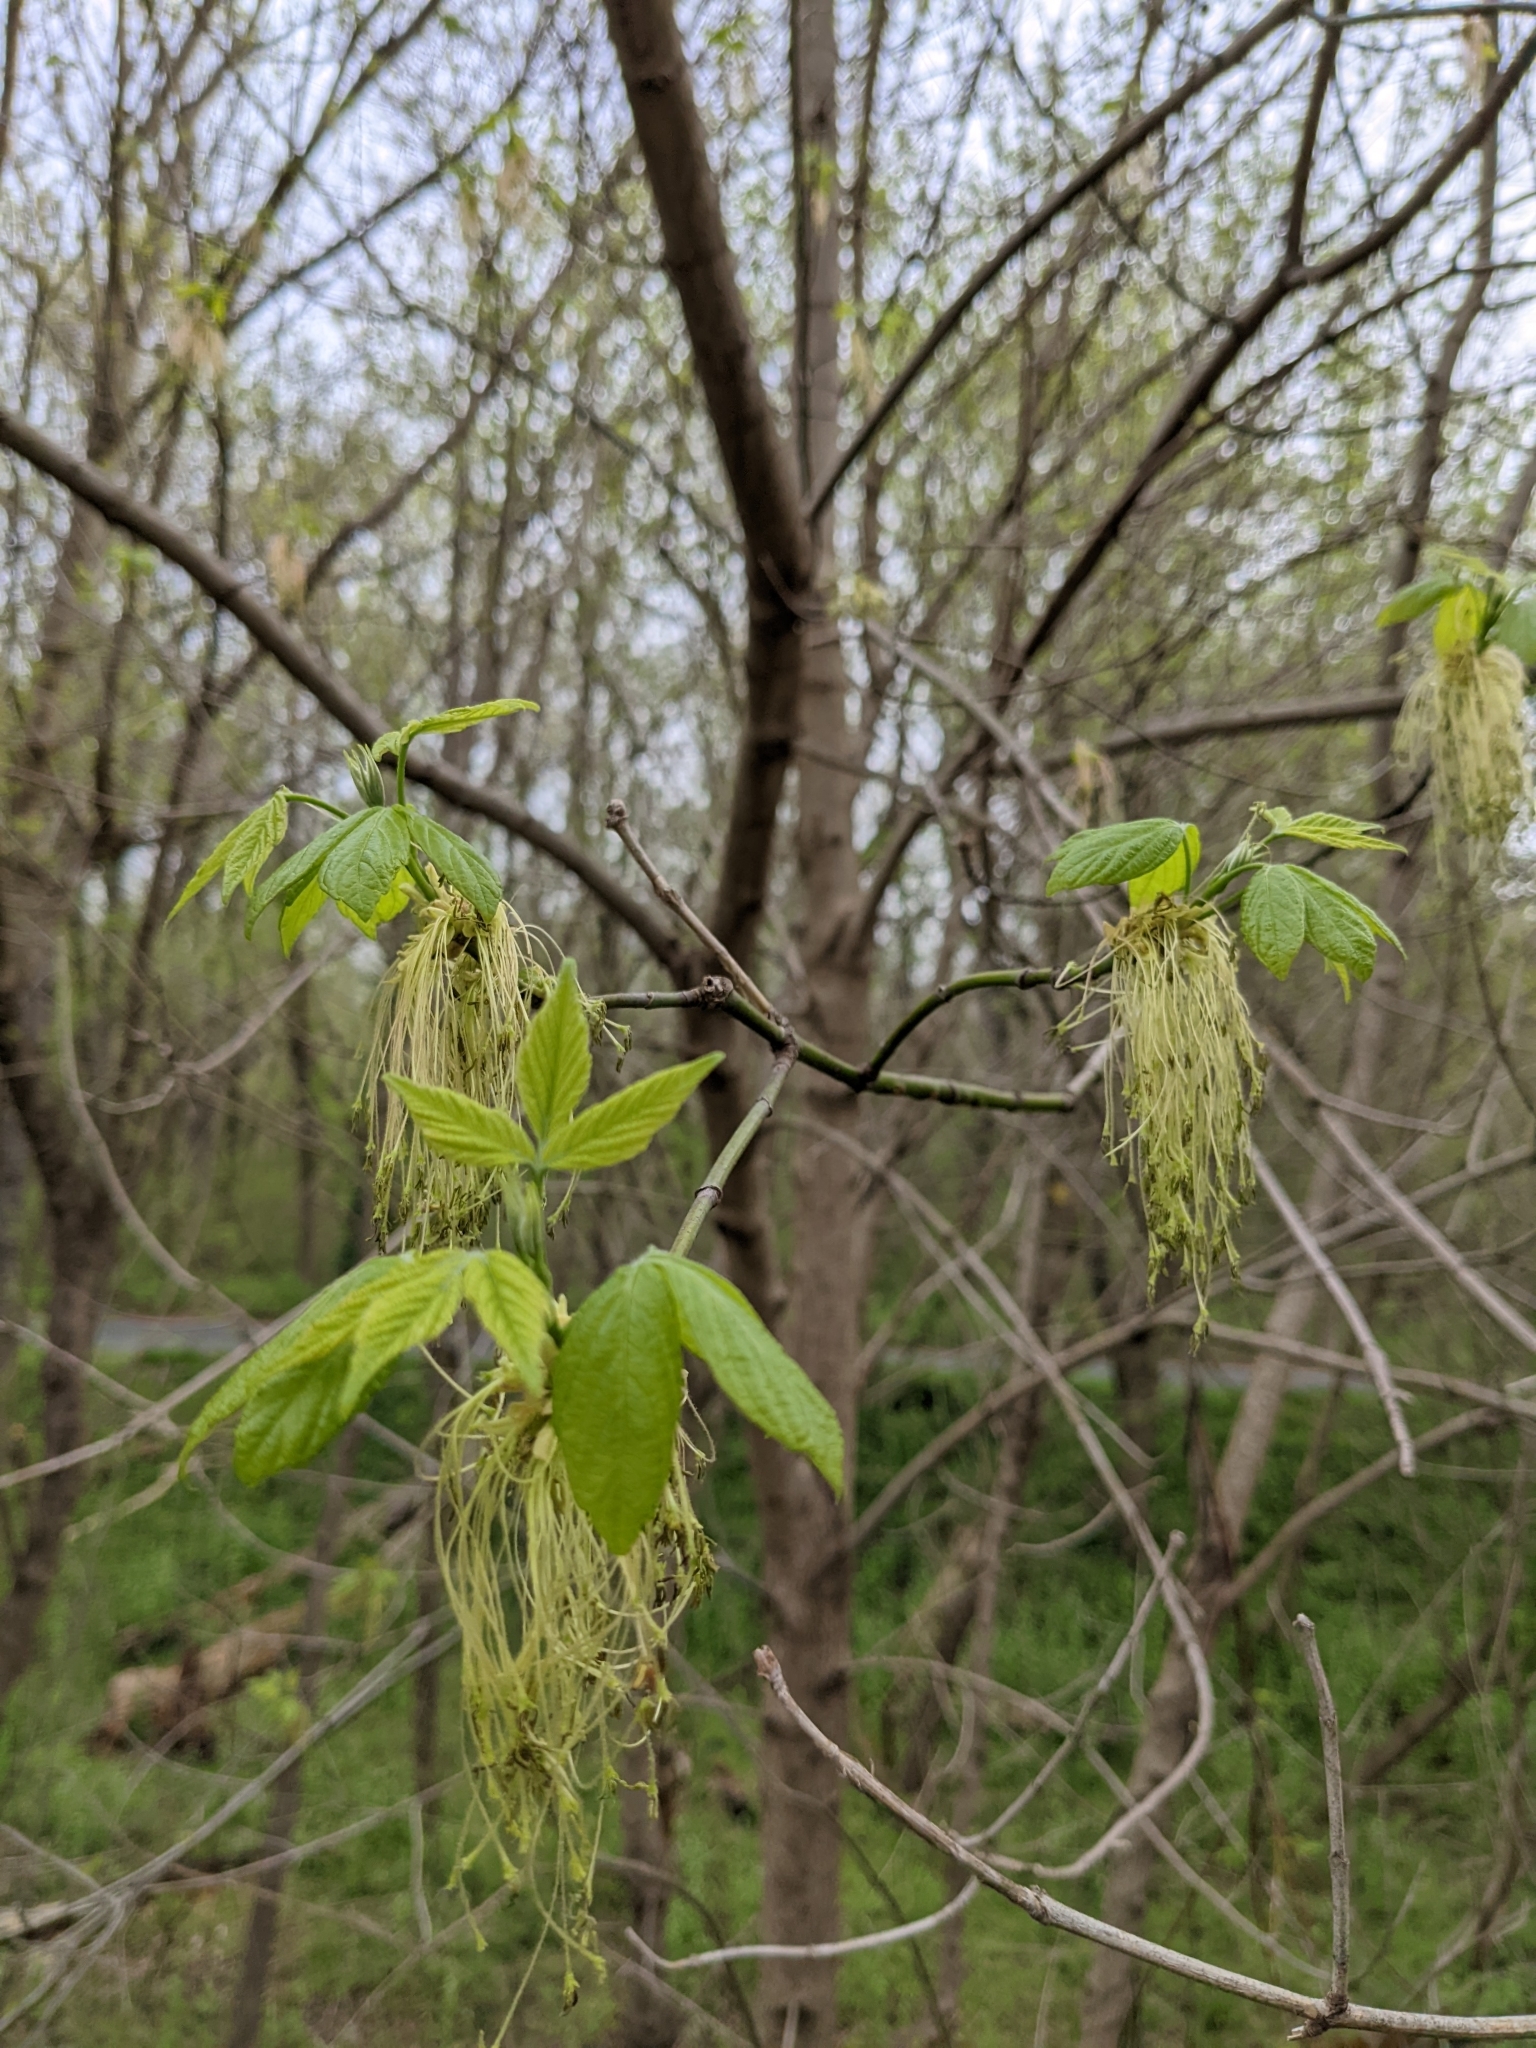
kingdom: Plantae
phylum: Tracheophyta
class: Magnoliopsida
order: Sapindales
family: Sapindaceae
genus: Acer
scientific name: Acer negundo
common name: Ashleaf maple
